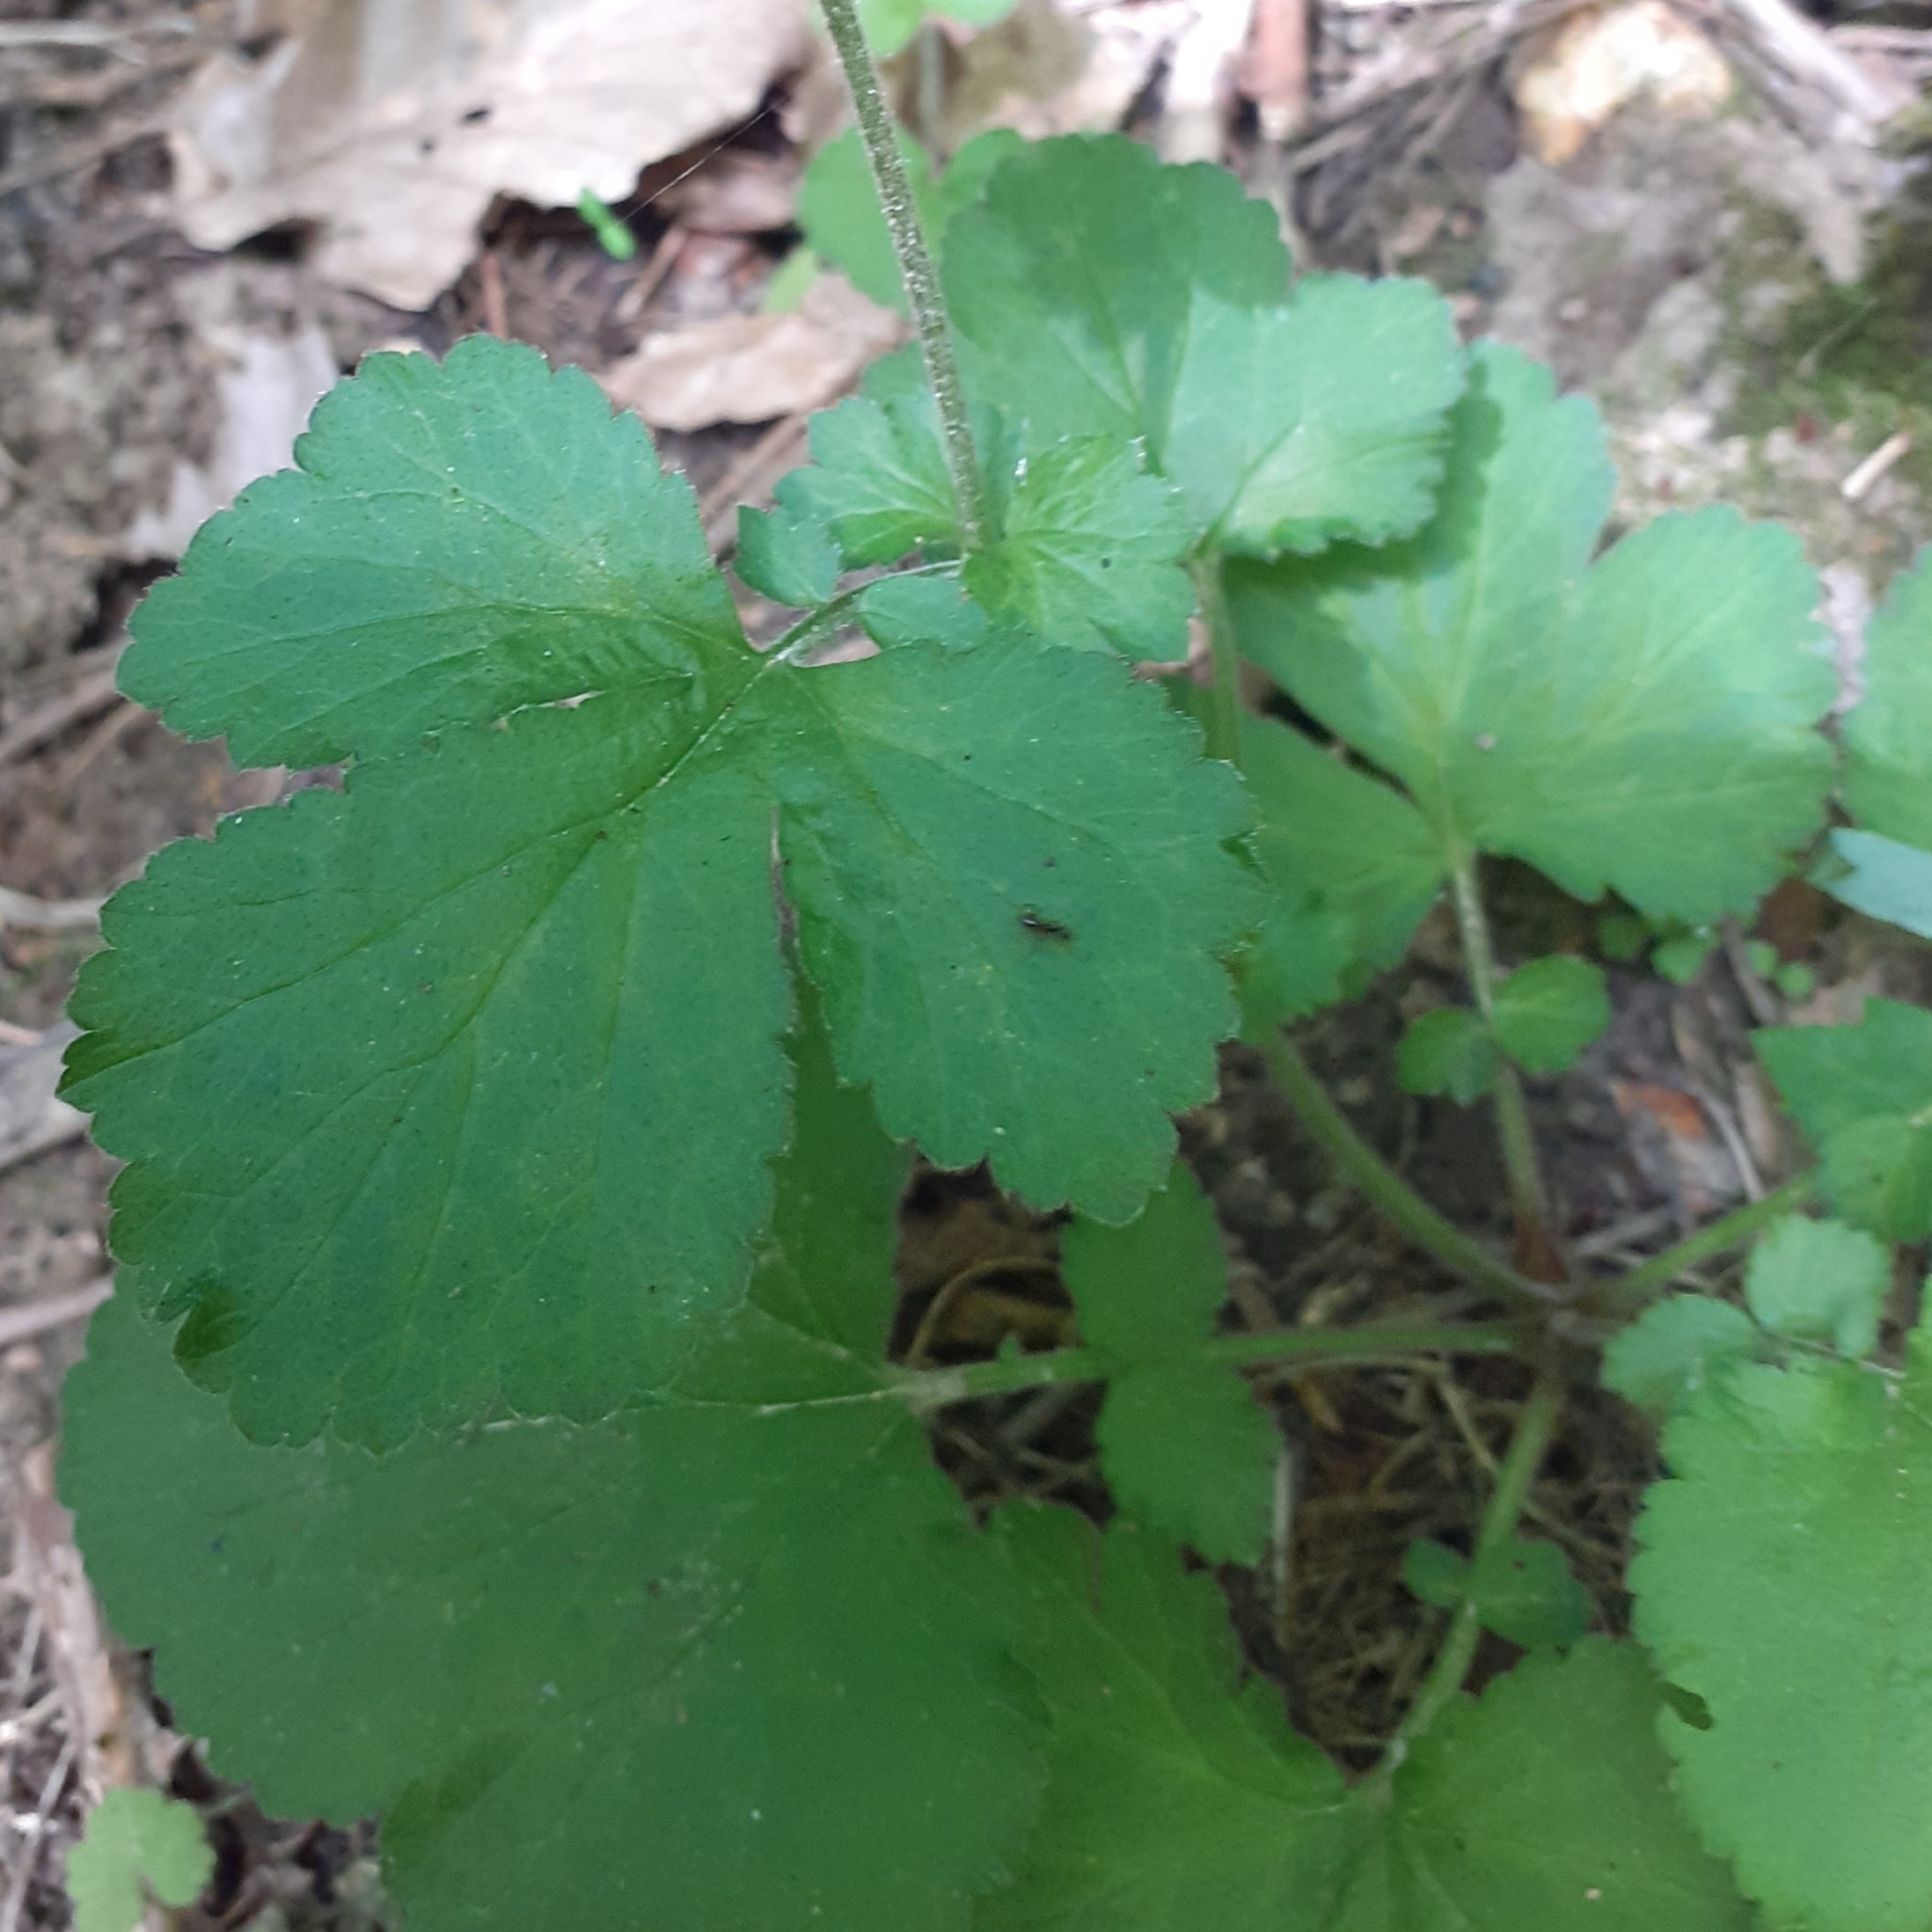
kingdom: Plantae
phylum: Tracheophyta
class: Magnoliopsida
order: Rosales
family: Rosaceae
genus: Geum
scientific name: Geum urbanum
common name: Wood avens
